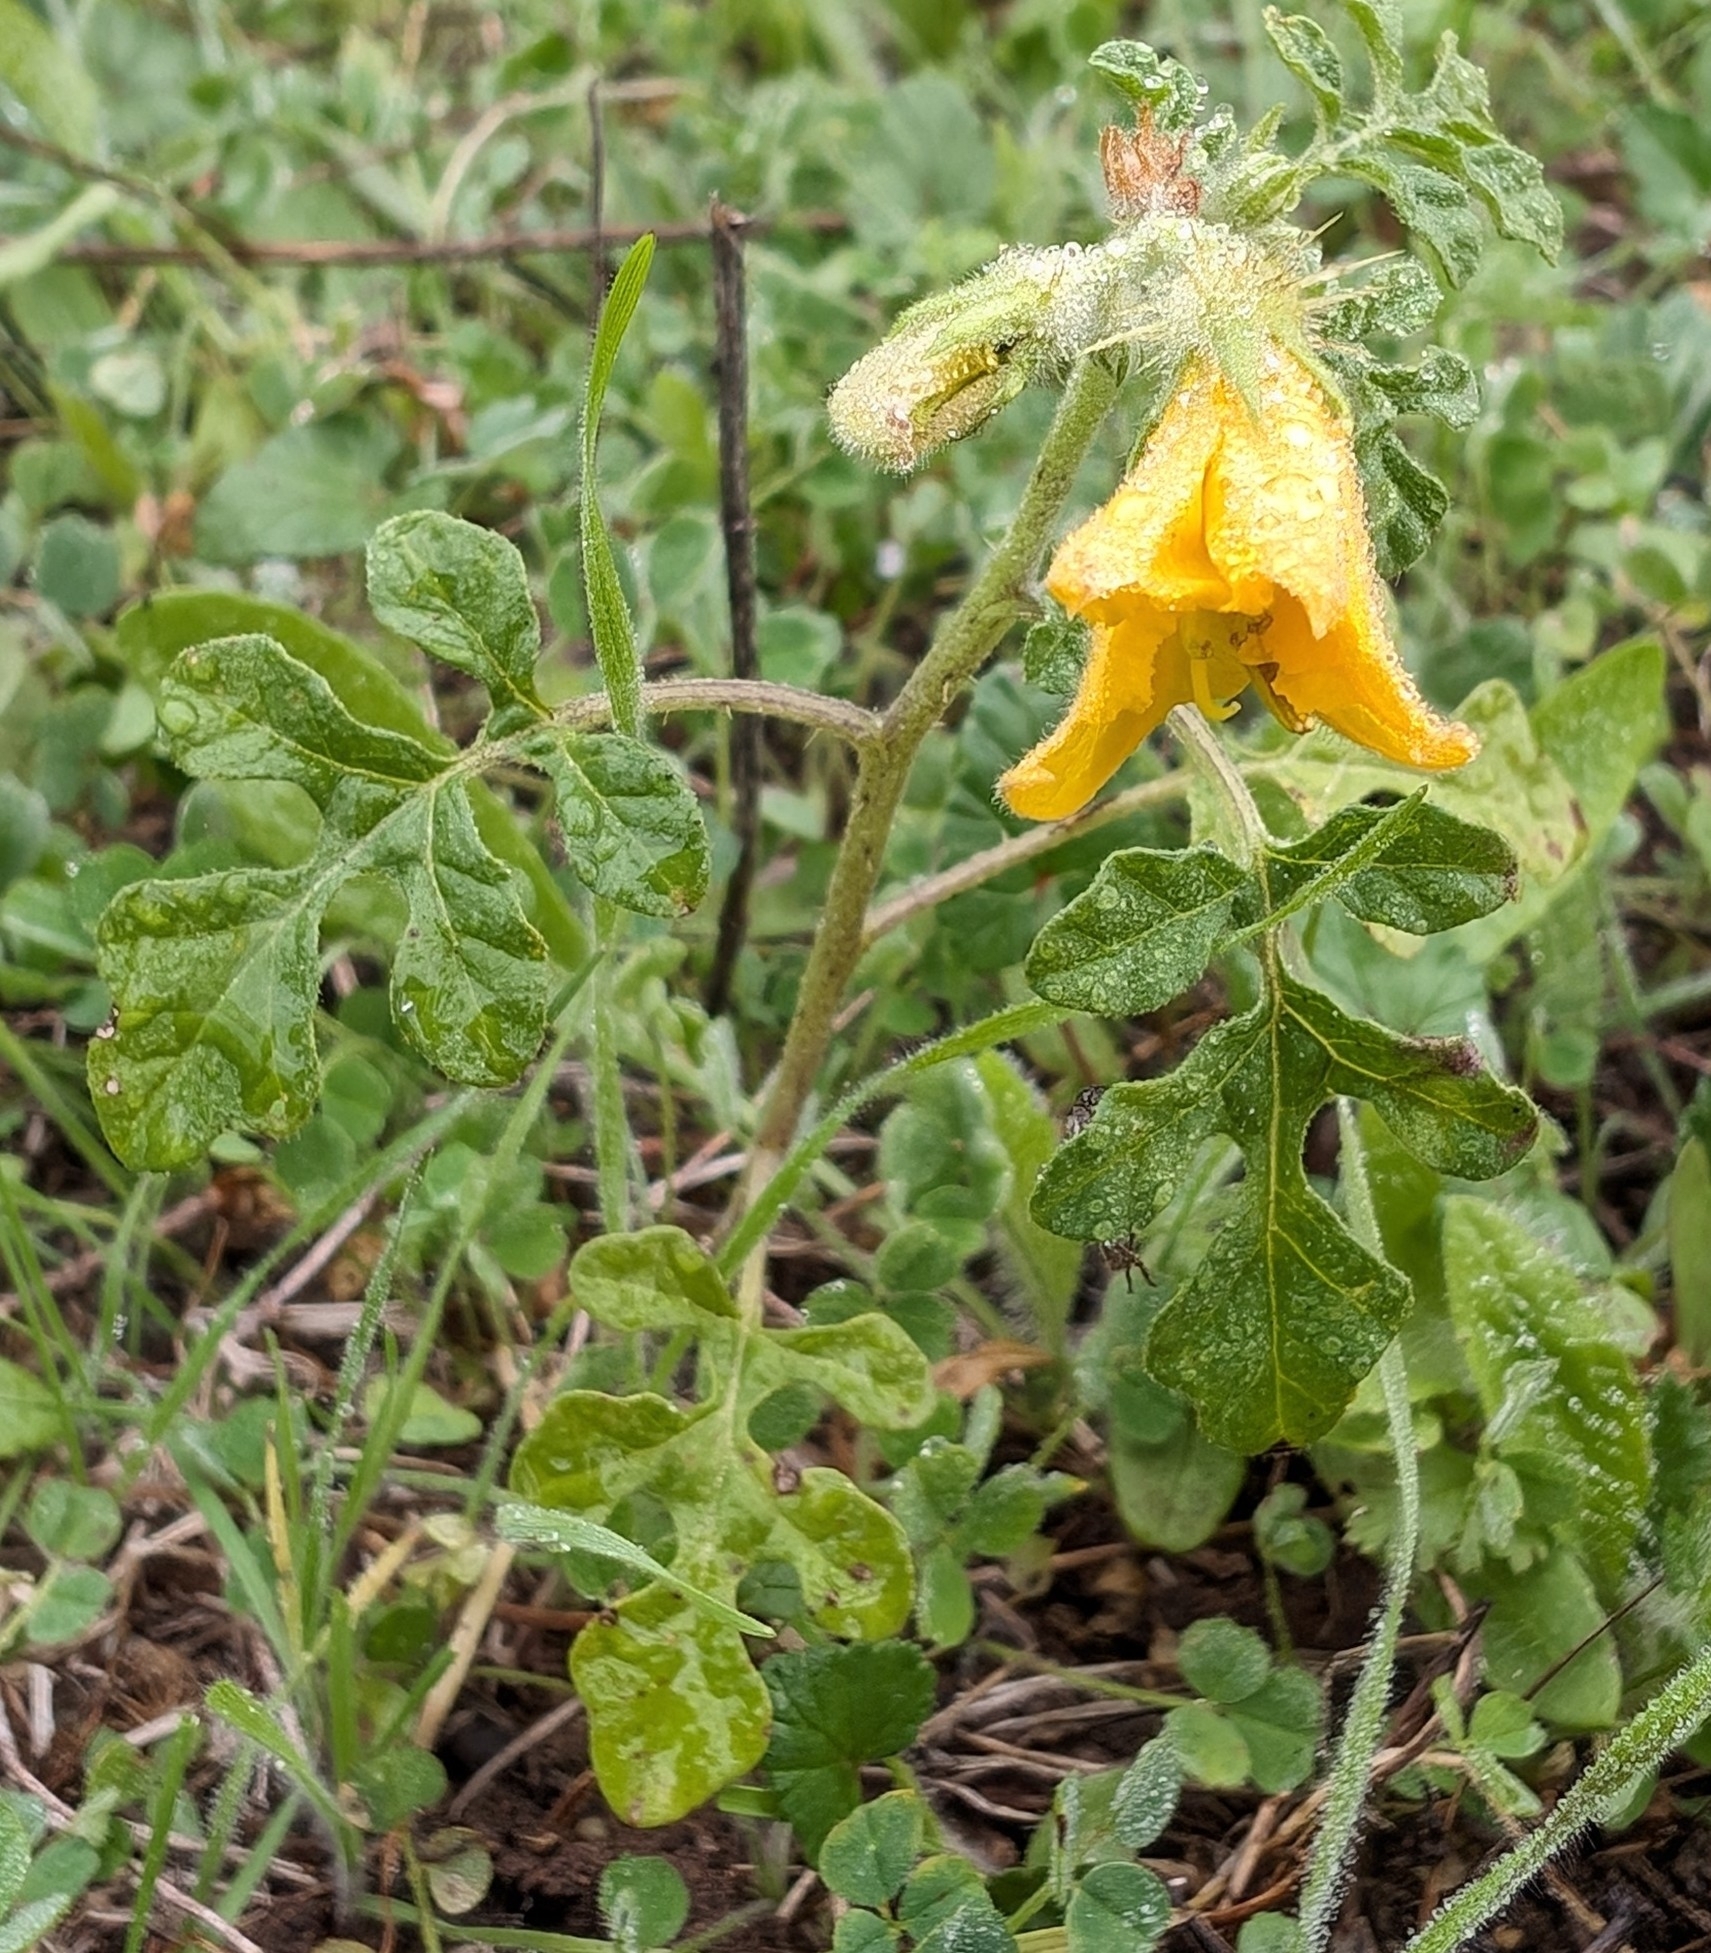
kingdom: Plantae
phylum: Tracheophyta
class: Magnoliopsida
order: Solanales
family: Solanaceae
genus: Solanum
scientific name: Solanum angustifolium
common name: Buffalobur nightshade
